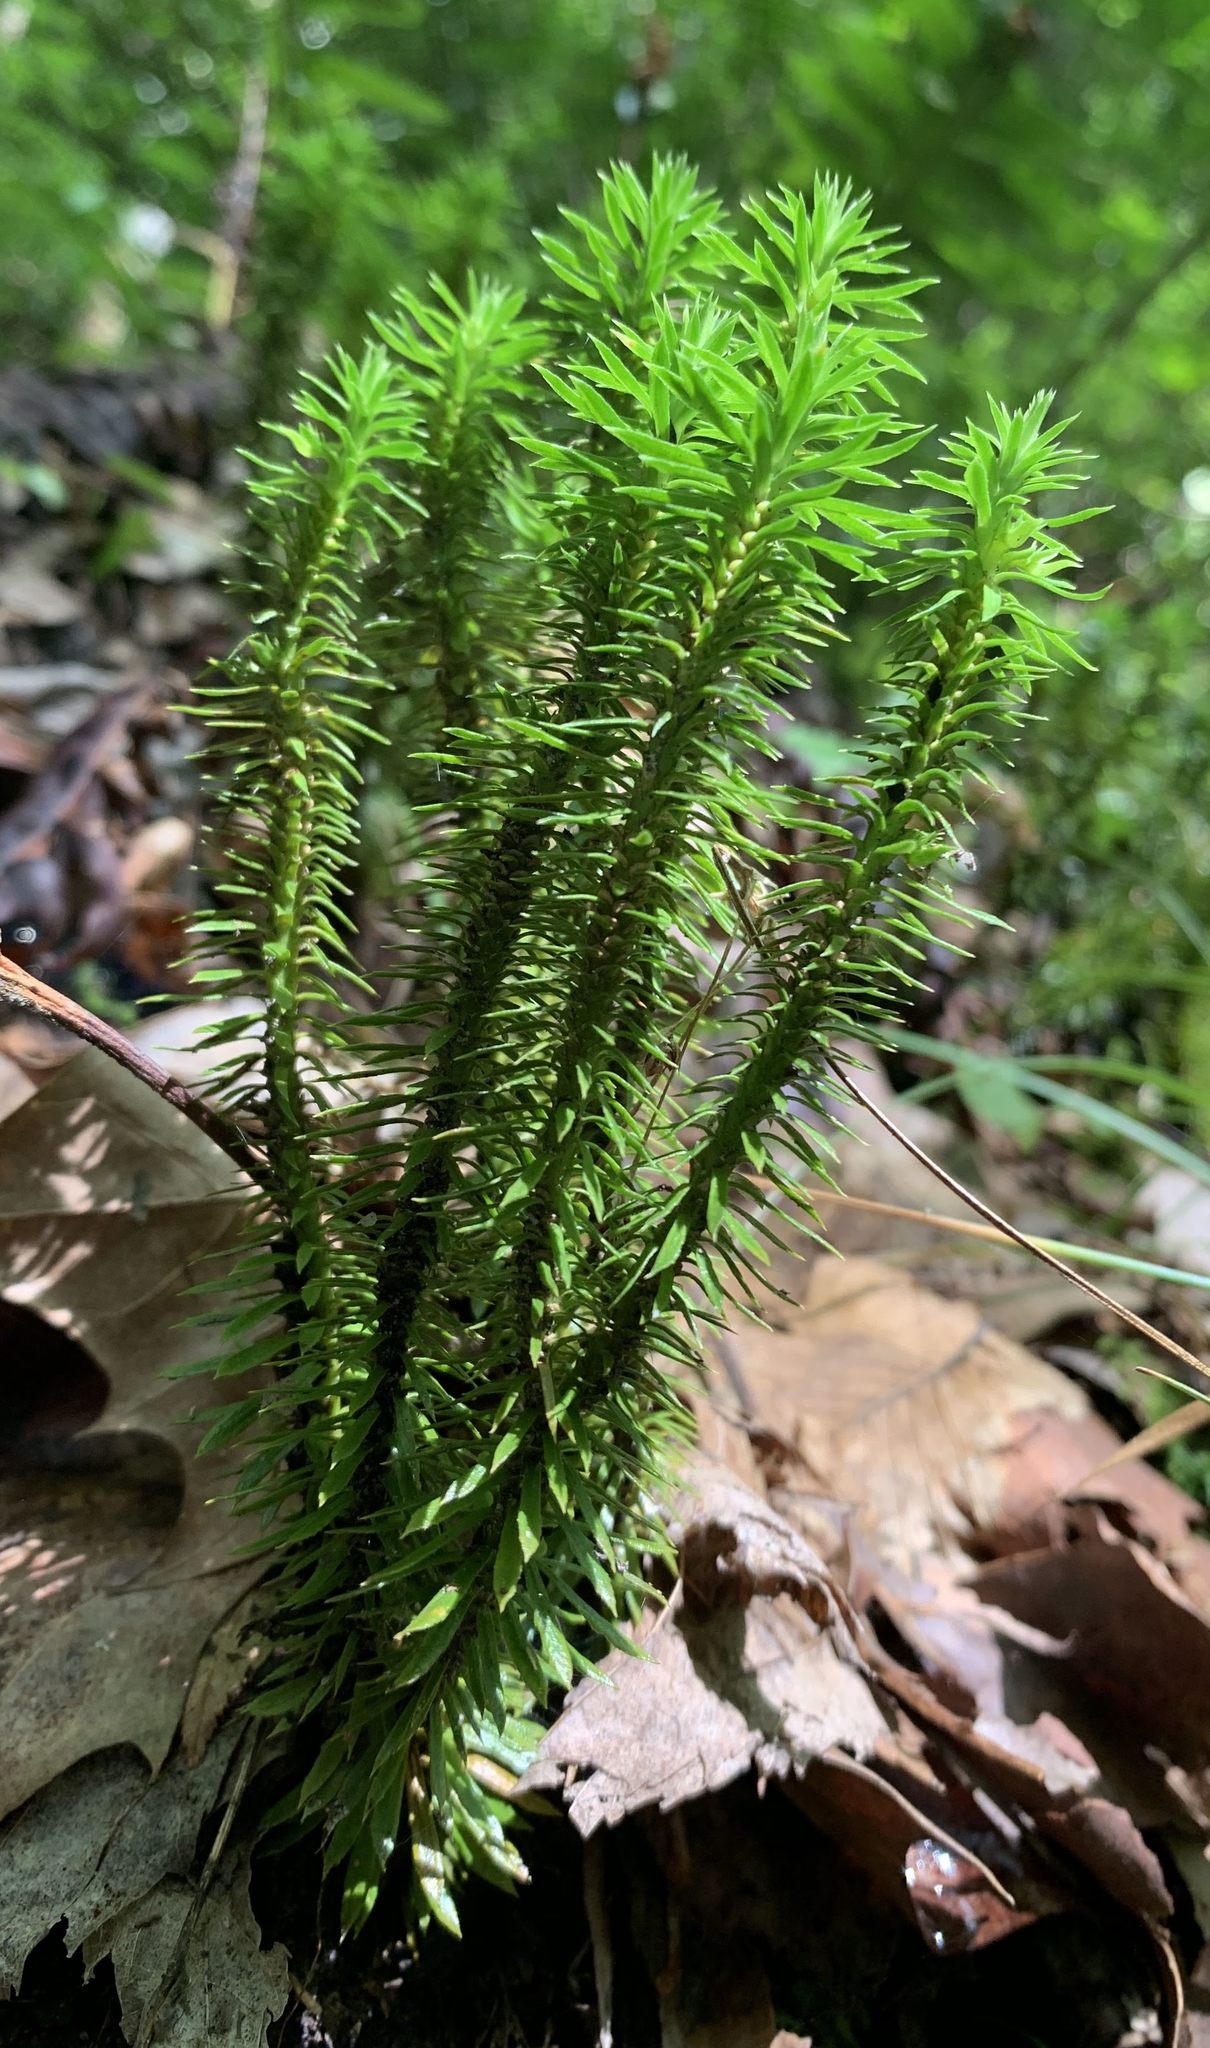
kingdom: Plantae
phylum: Tracheophyta
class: Lycopodiopsida
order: Lycopodiales
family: Lycopodiaceae
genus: Huperzia
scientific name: Huperzia lucidula
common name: Shining clubmoss
